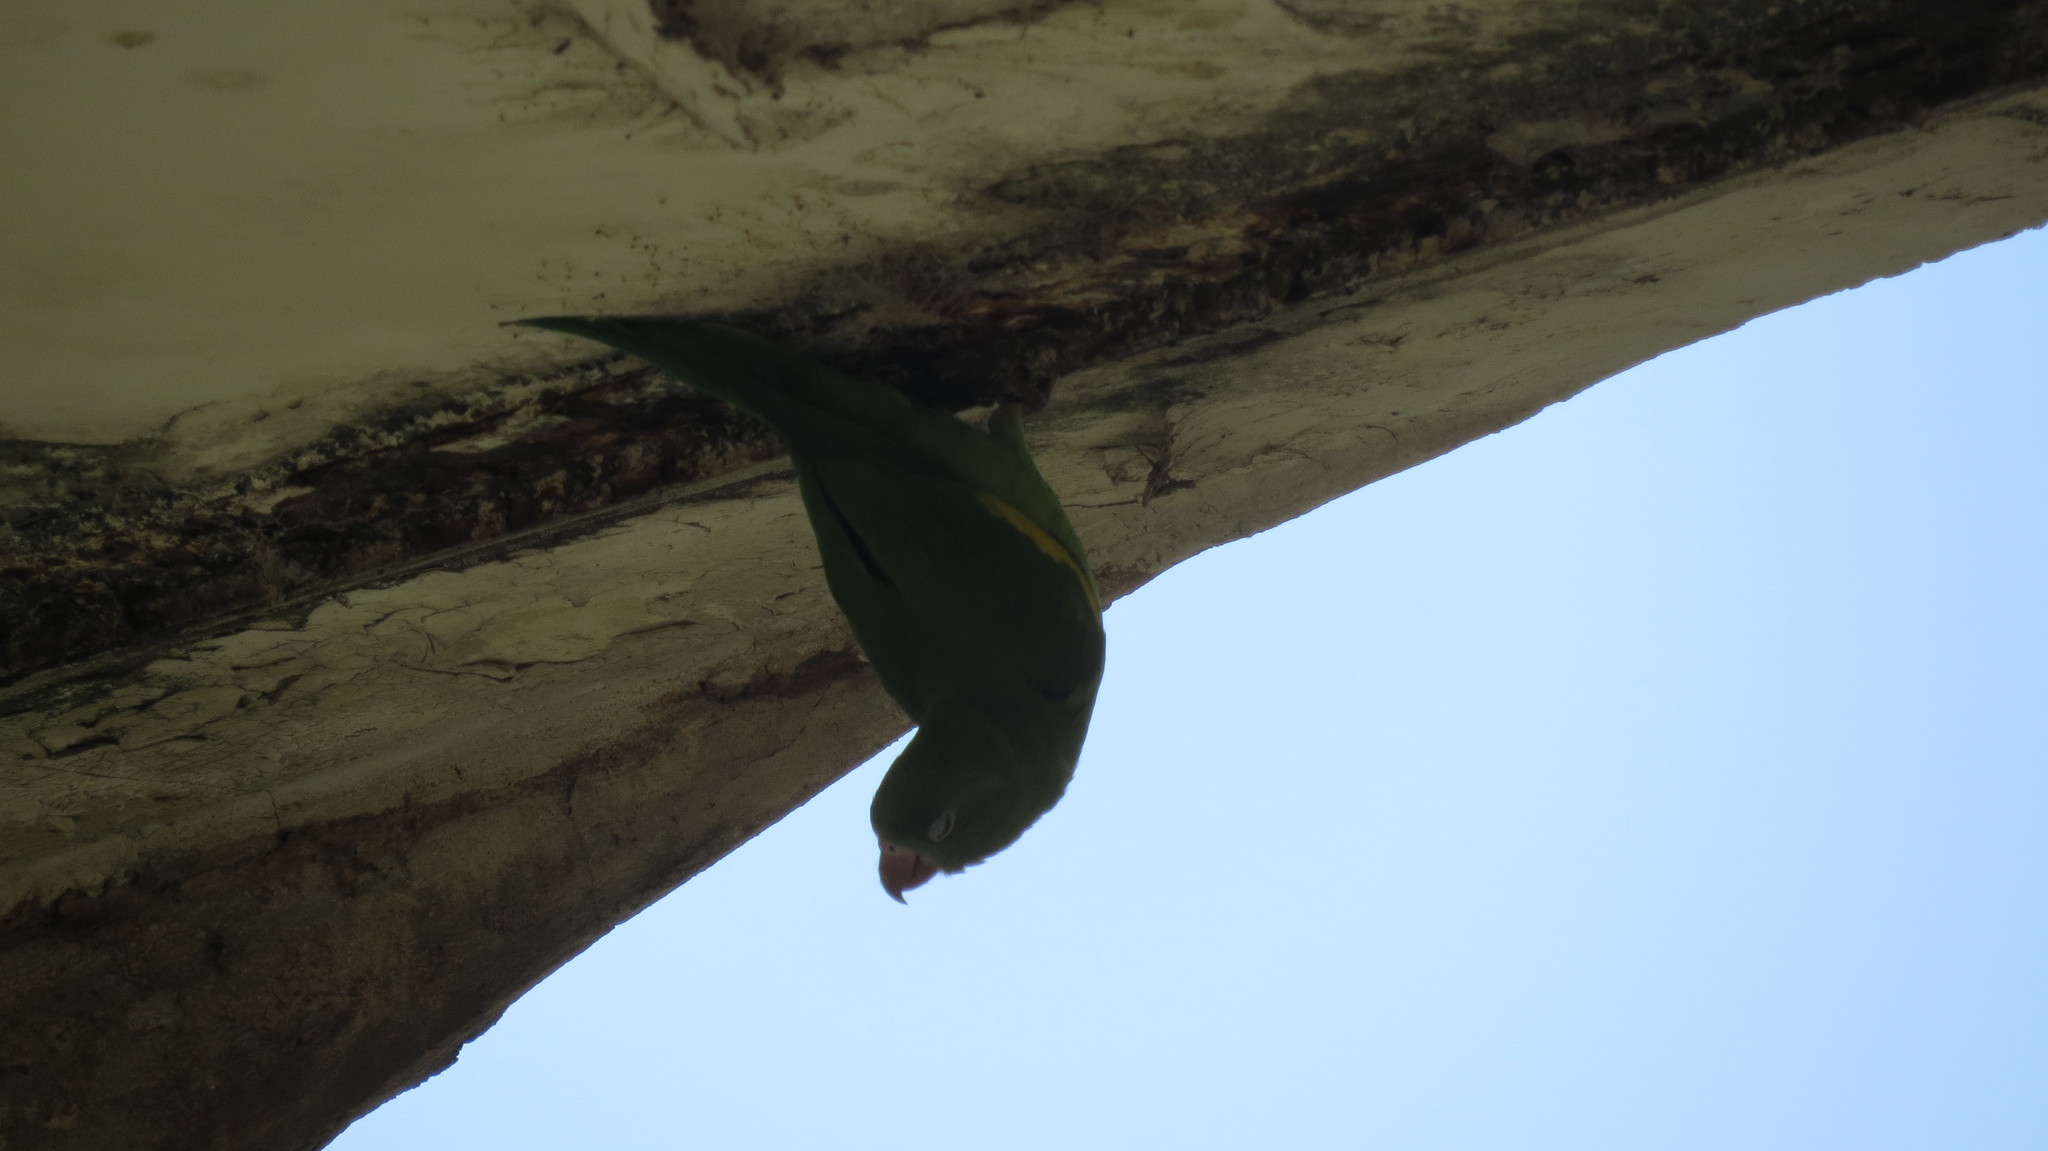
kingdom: Animalia
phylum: Chordata
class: Aves
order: Psittaciformes
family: Psittacidae
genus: Brotogeris
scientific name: Brotogeris chiriri
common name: Yellow-chevroned parakeet
